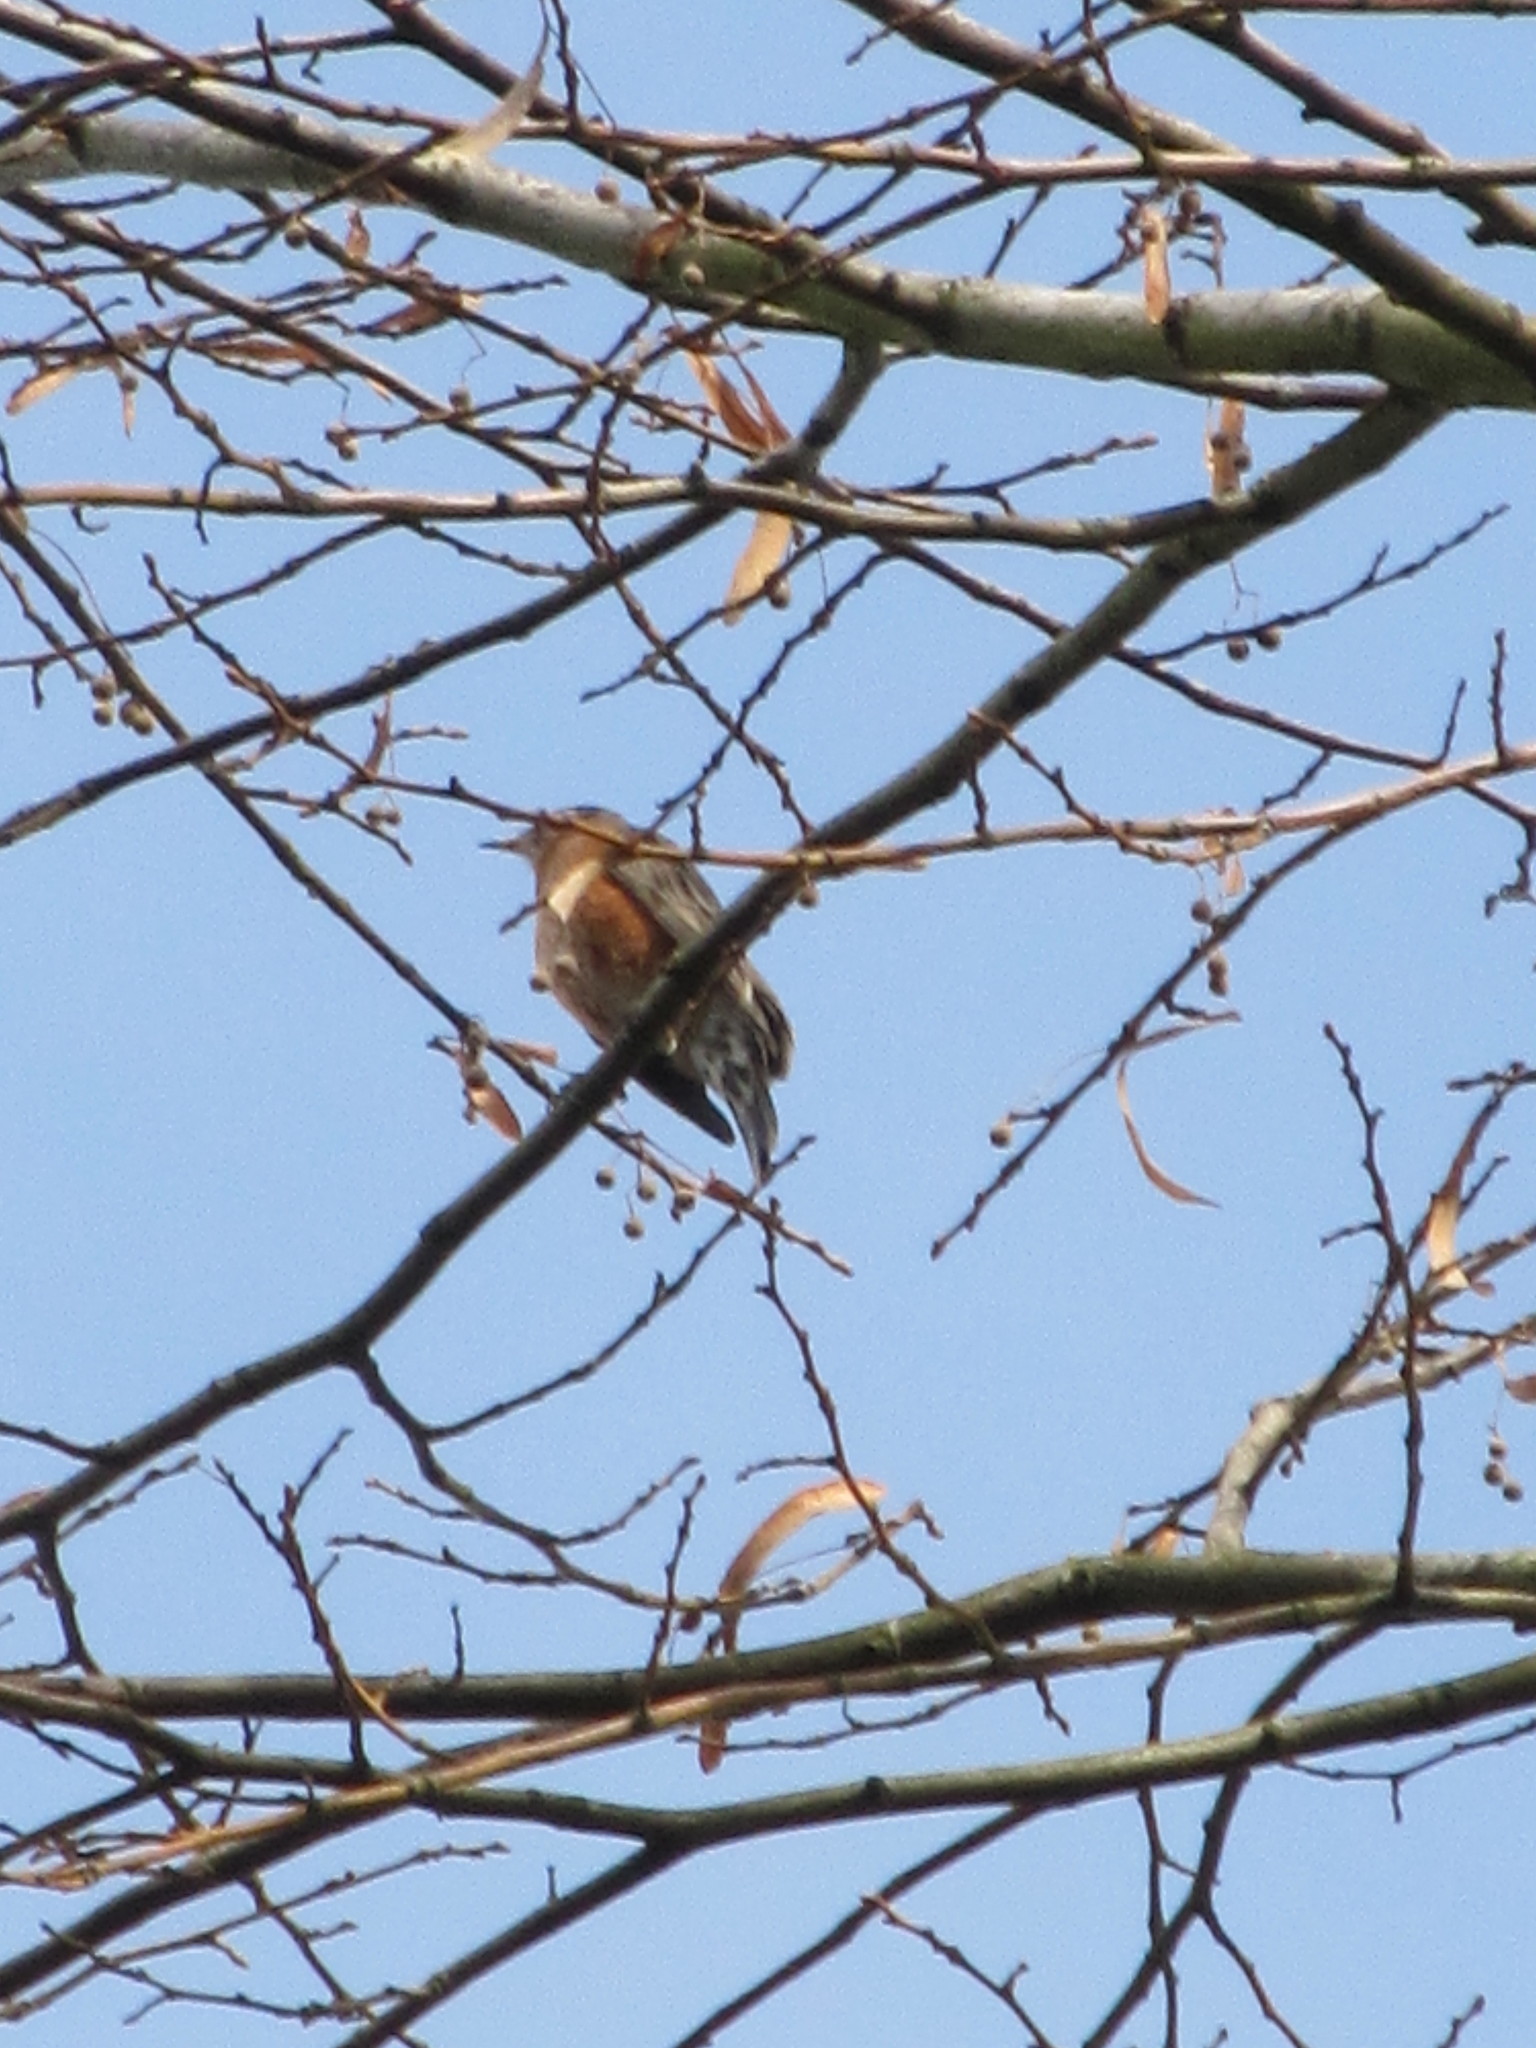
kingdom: Animalia
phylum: Chordata
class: Aves
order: Passeriformes
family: Turdidae
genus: Turdus
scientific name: Turdus migratorius
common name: American robin
